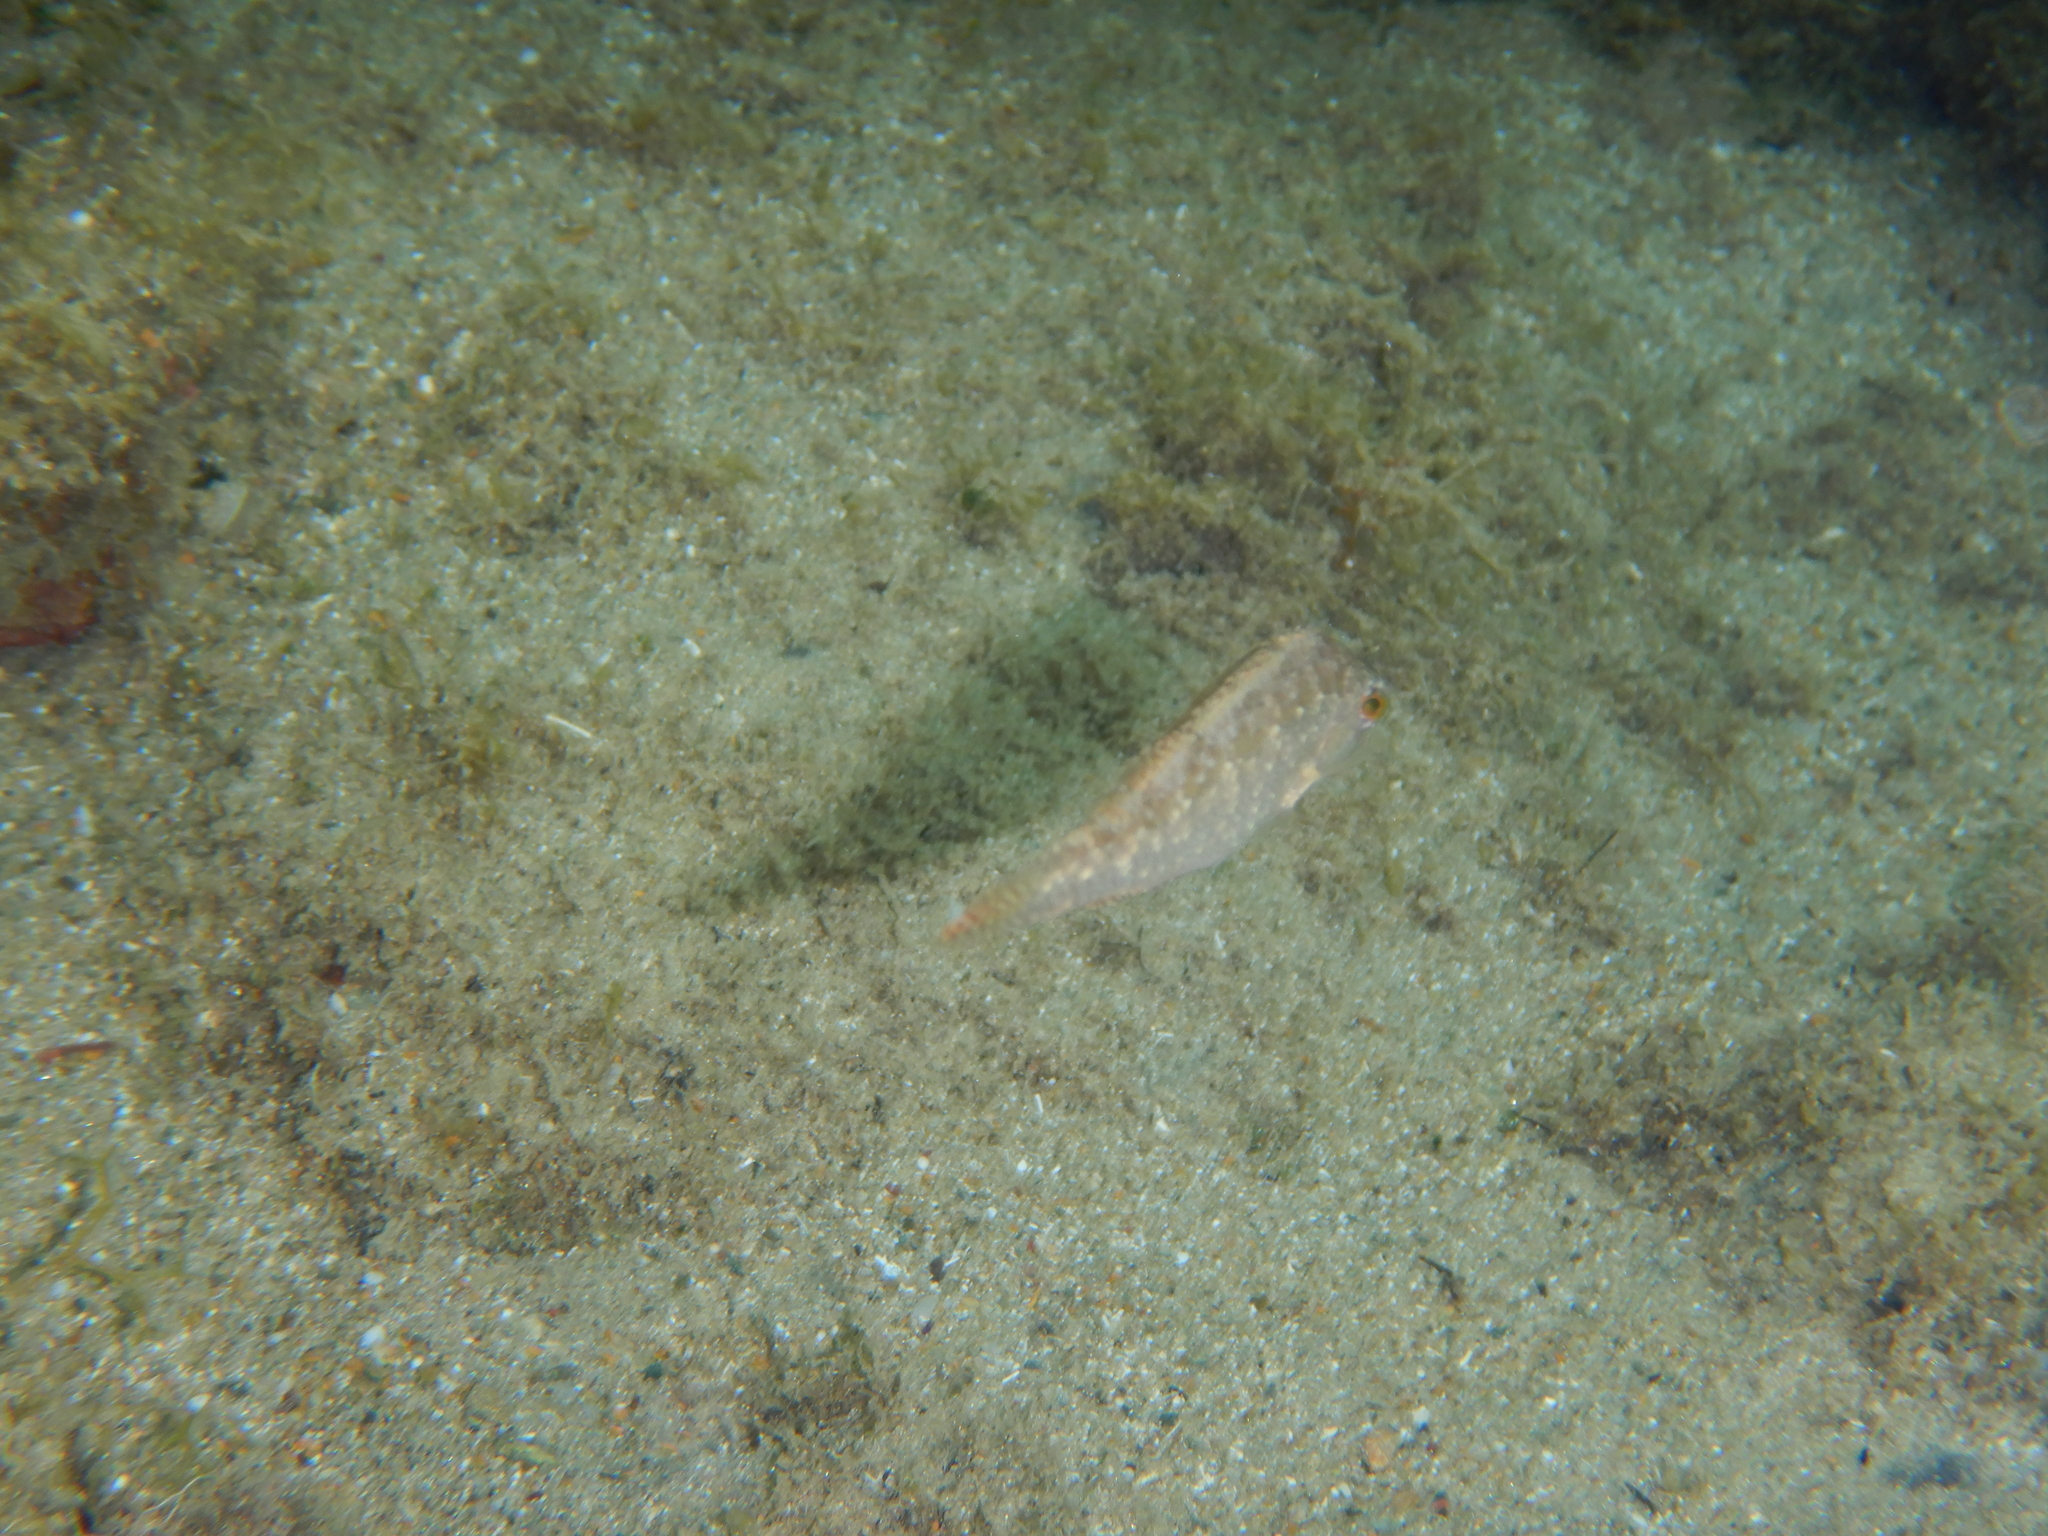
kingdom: Animalia
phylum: Chordata
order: Perciformes
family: Labridae
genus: Symphodus
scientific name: Symphodus cinereus
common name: Grey wrasse
